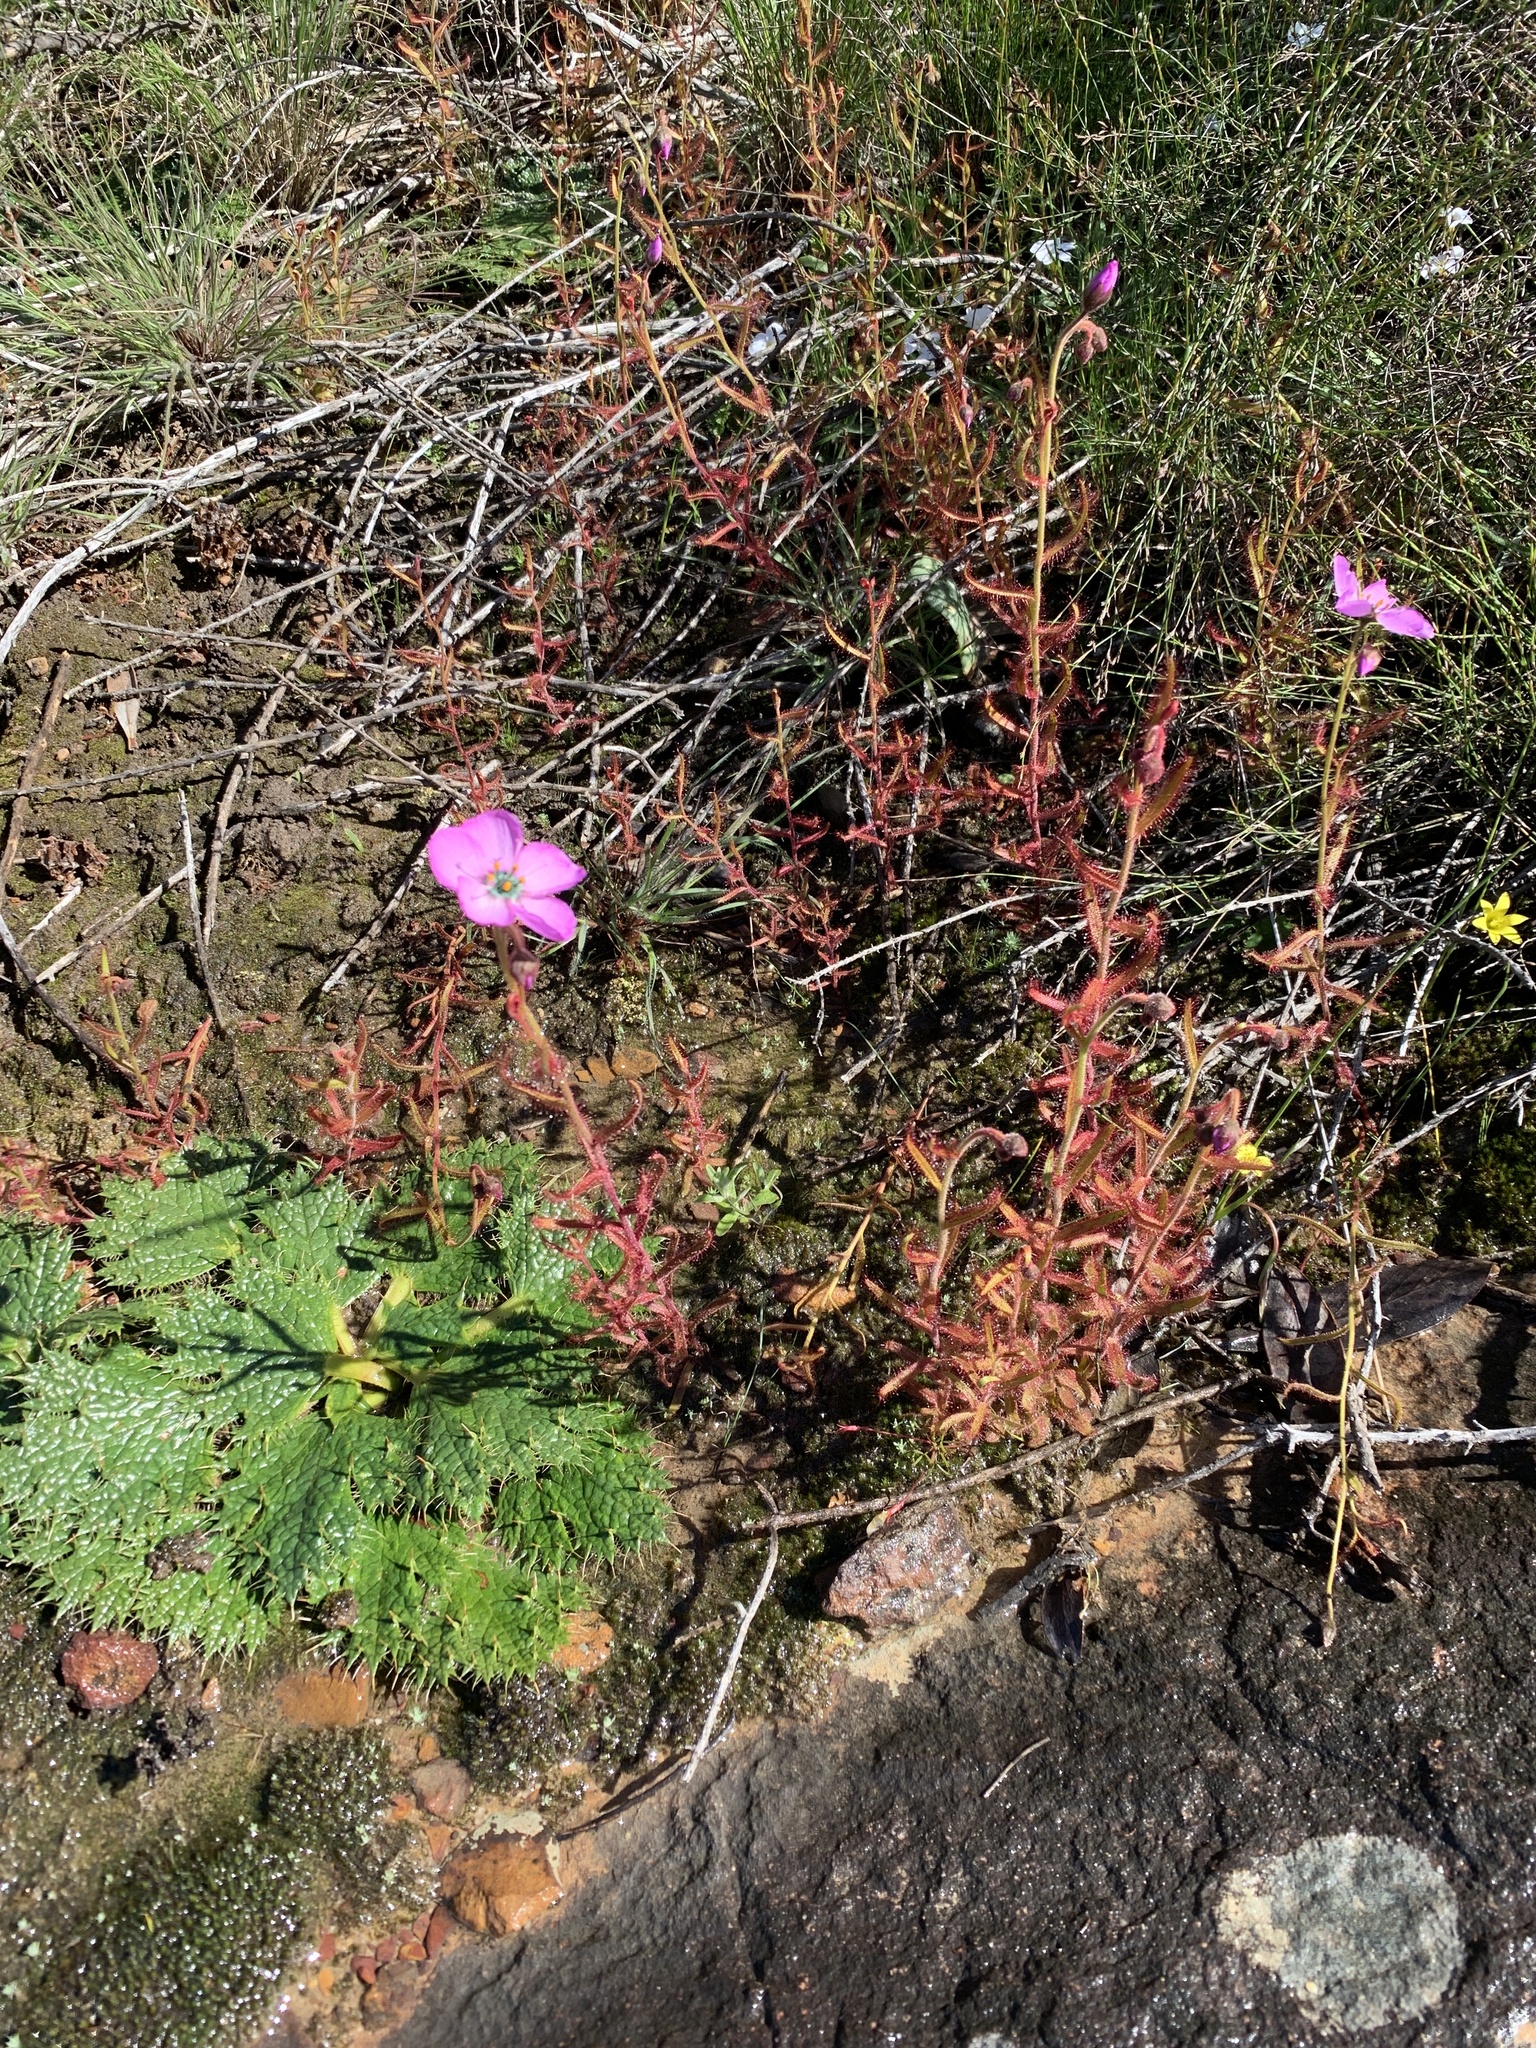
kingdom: Plantae
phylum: Tracheophyta
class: Magnoliopsida
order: Caryophyllales
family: Droseraceae
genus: Drosera
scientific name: Drosera cistiflora
